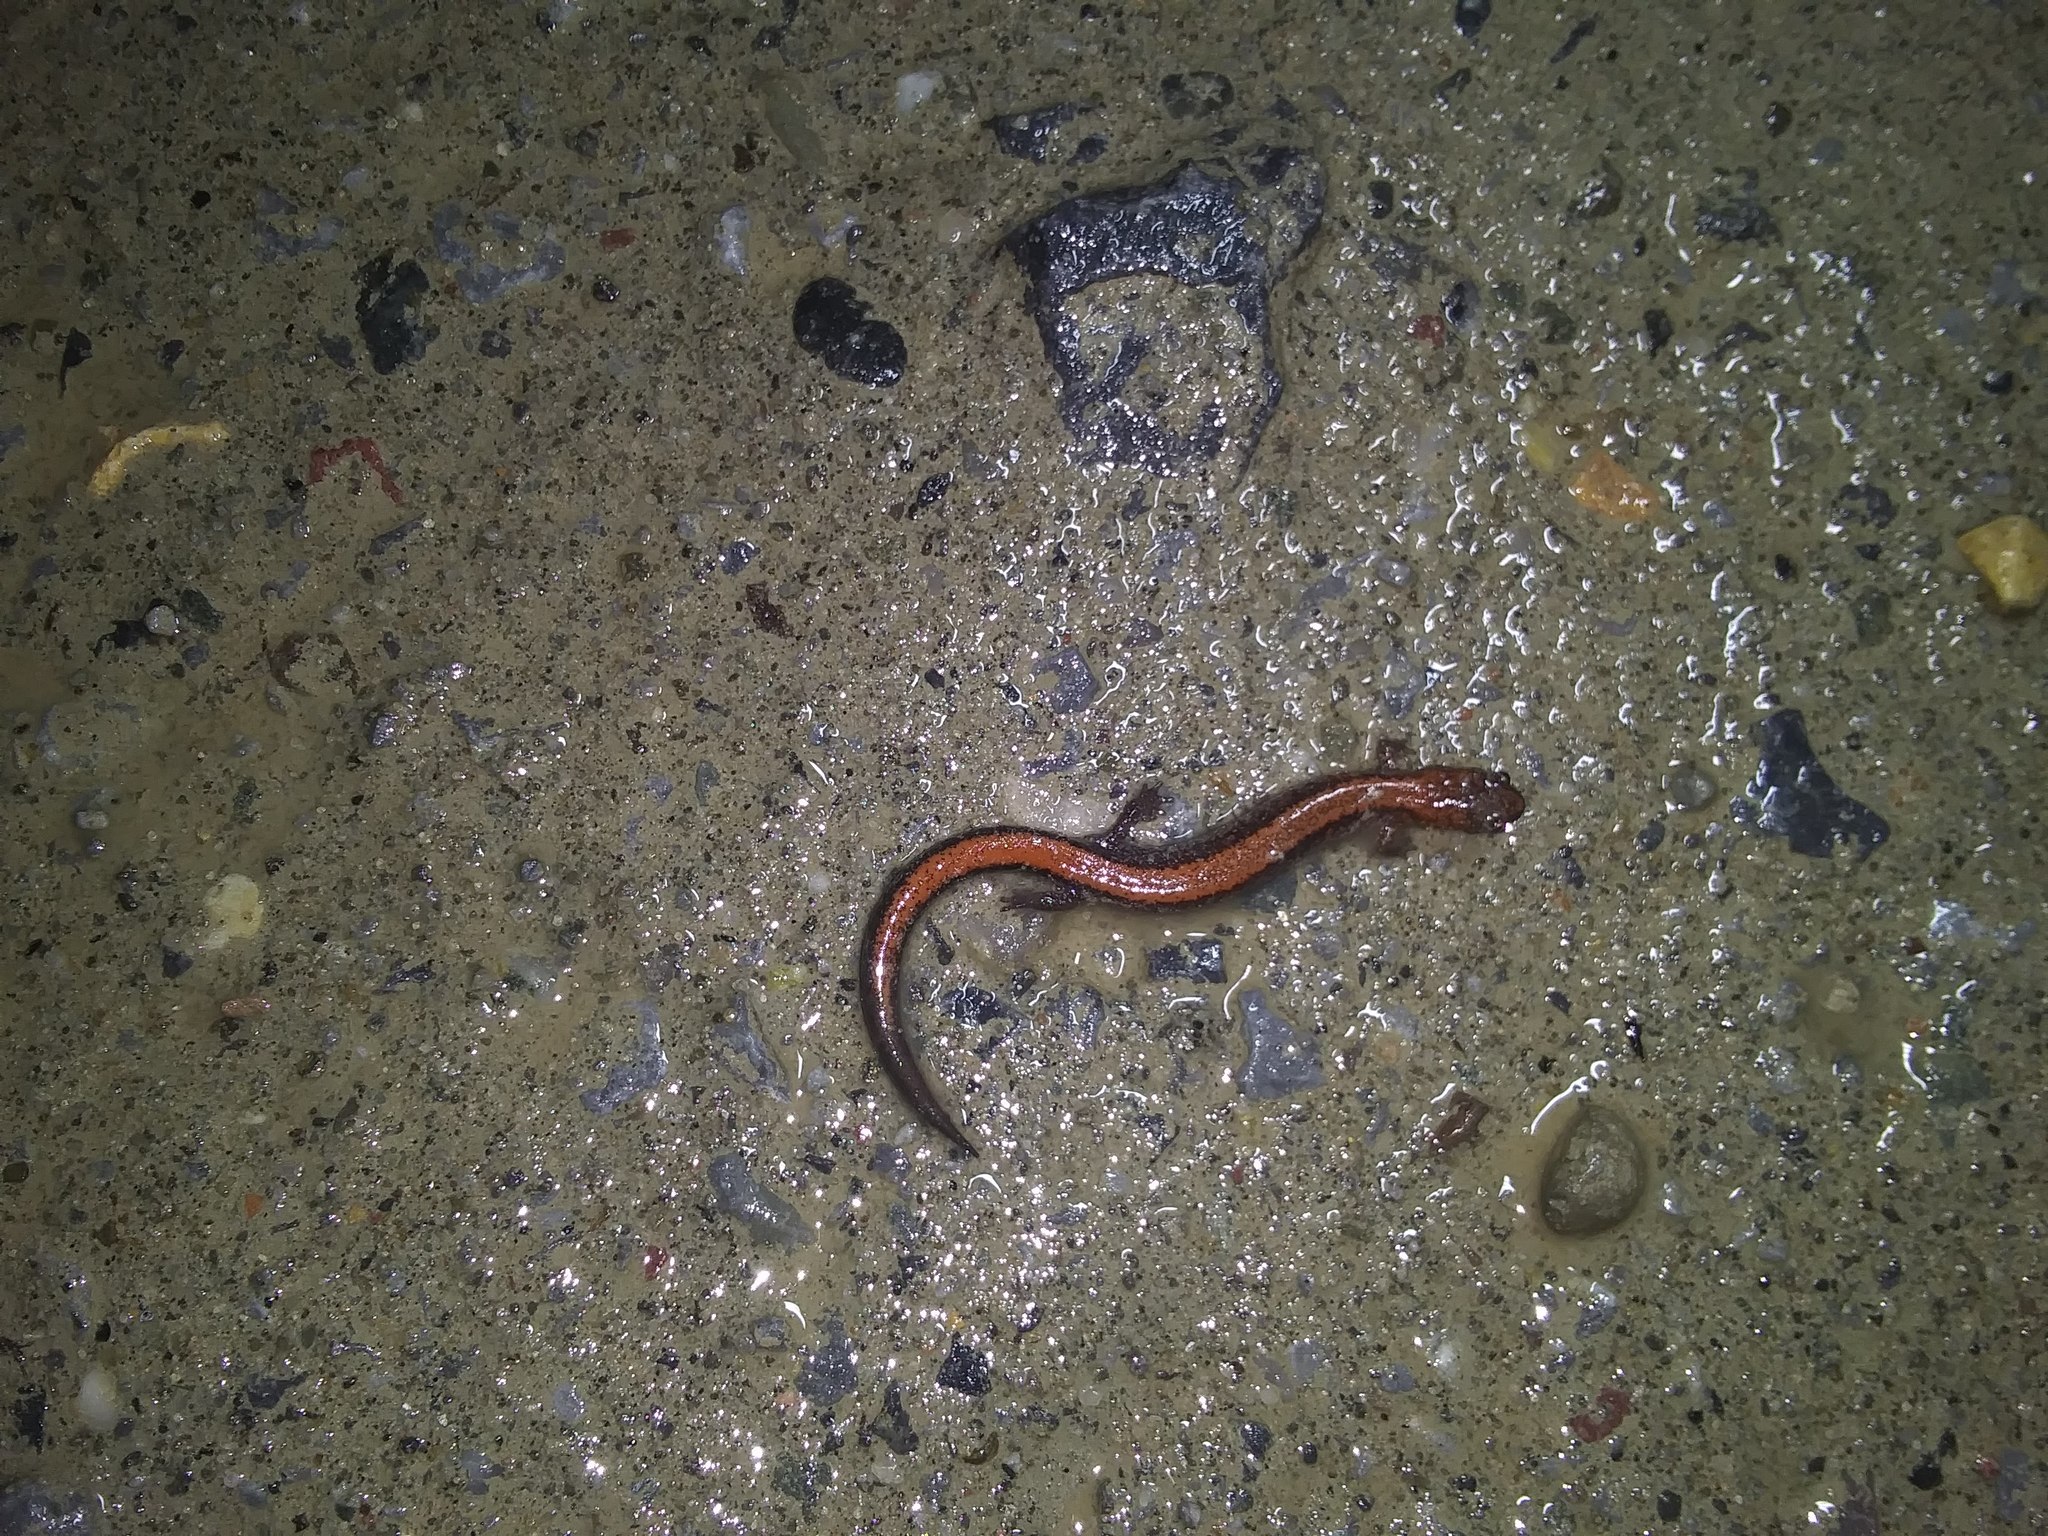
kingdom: Animalia
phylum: Chordata
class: Amphibia
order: Caudata
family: Plethodontidae
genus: Plethodon
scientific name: Plethodon cinereus
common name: Redback salamander
